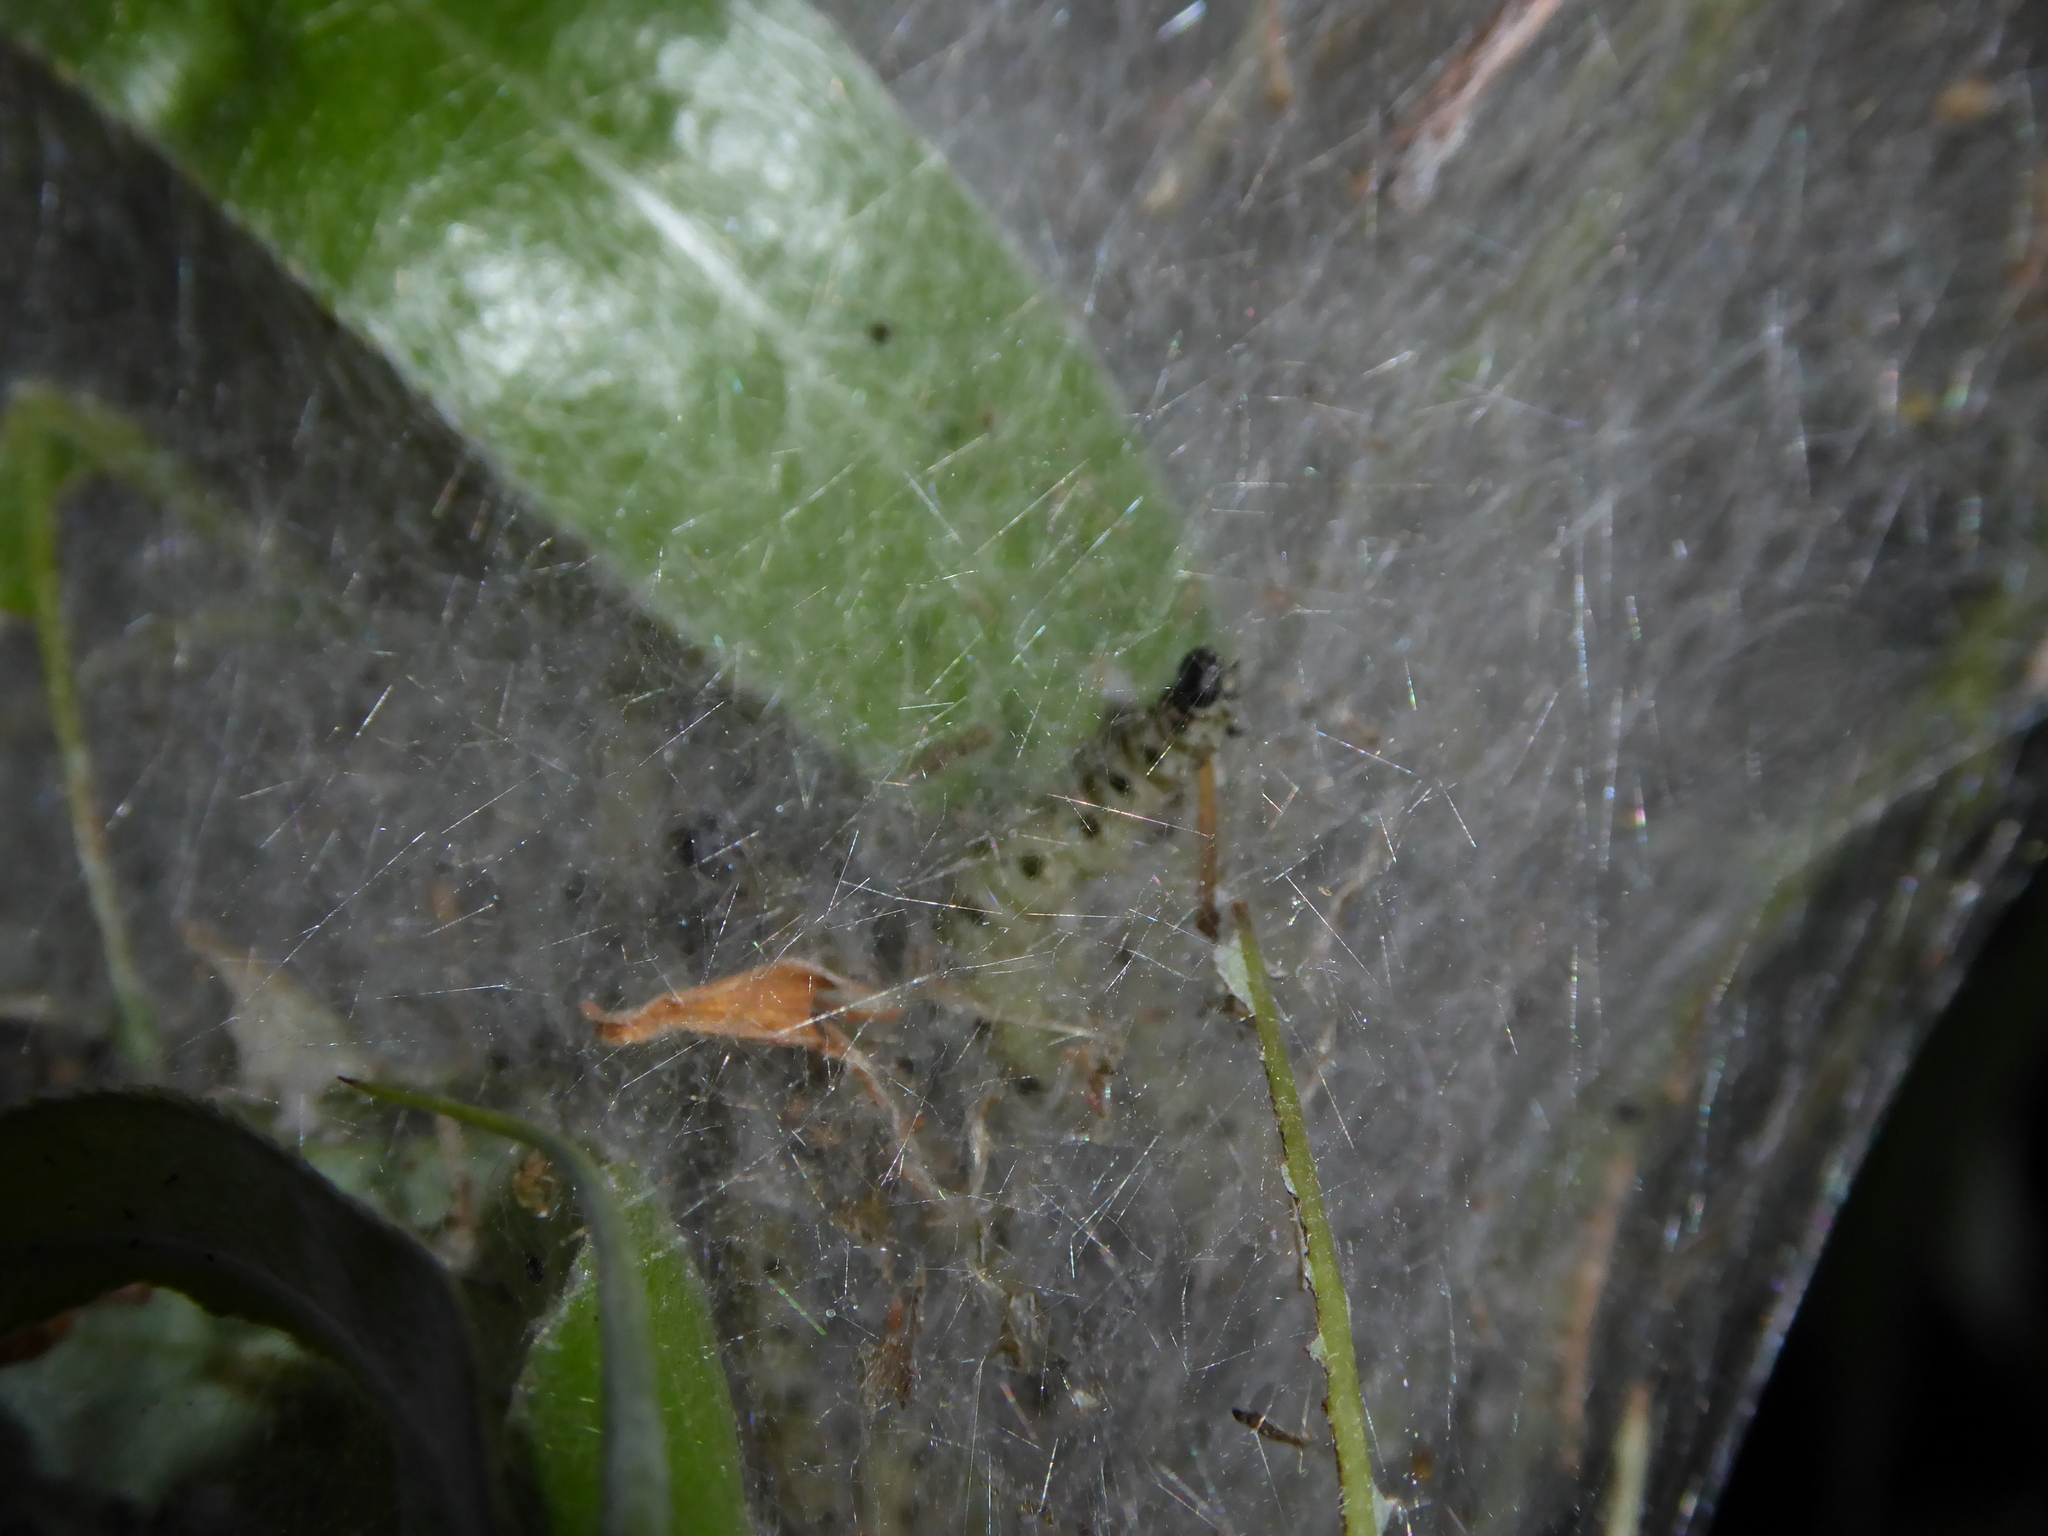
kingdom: Animalia
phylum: Arthropoda
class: Insecta
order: Lepidoptera
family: Yponomeutidae
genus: Yponomeuta
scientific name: Yponomeuta padella
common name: Orchard ermine
